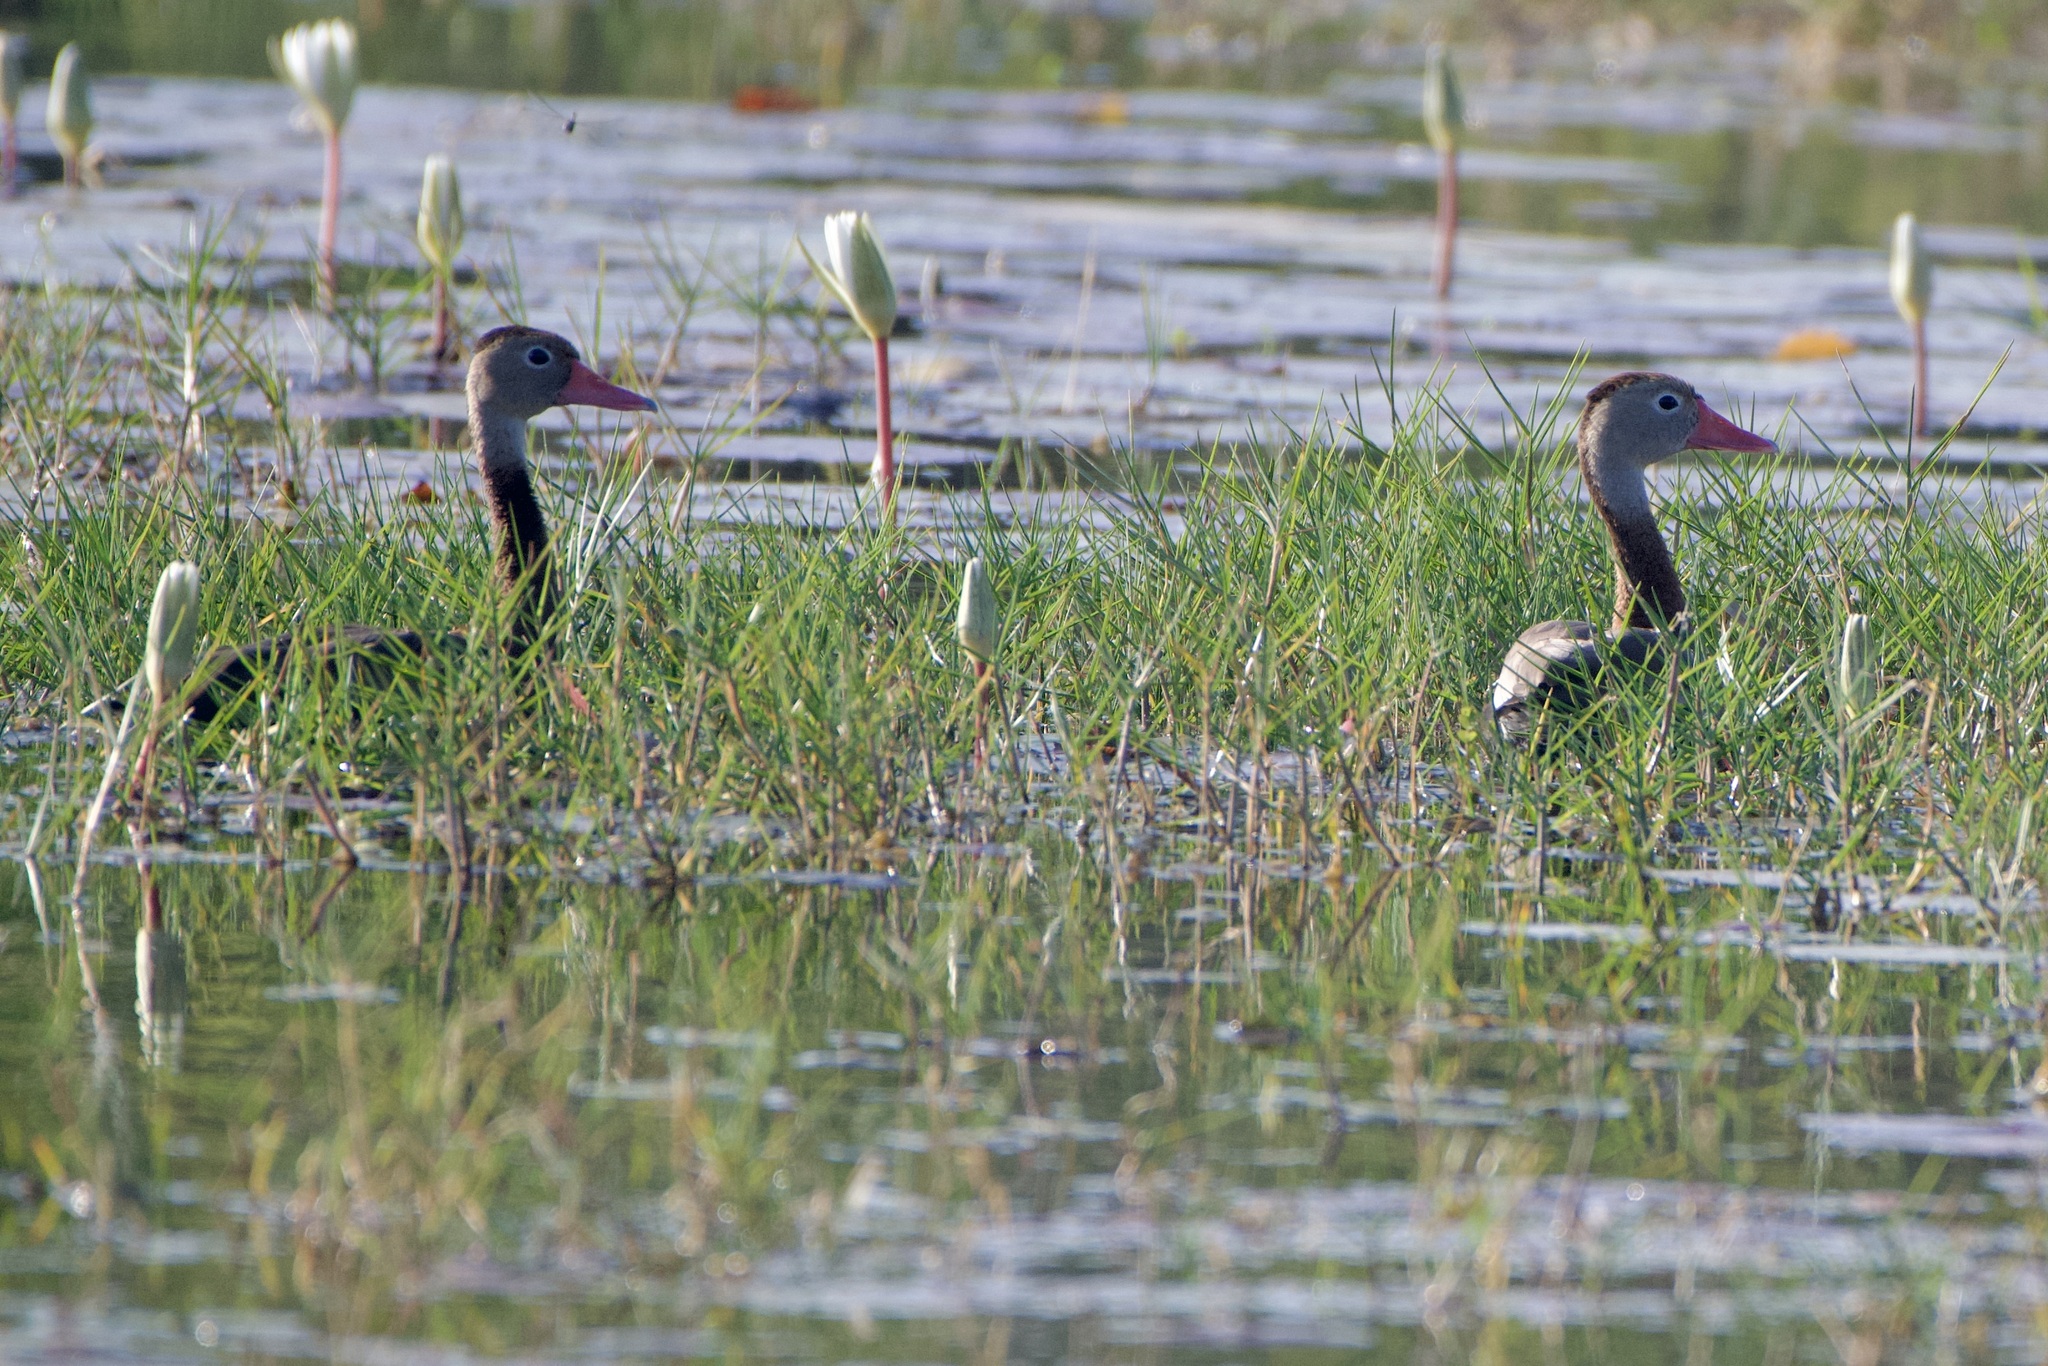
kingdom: Animalia
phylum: Chordata
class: Aves
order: Anseriformes
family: Anatidae
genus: Dendrocygna
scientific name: Dendrocygna autumnalis
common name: Black-bellied whistling duck
